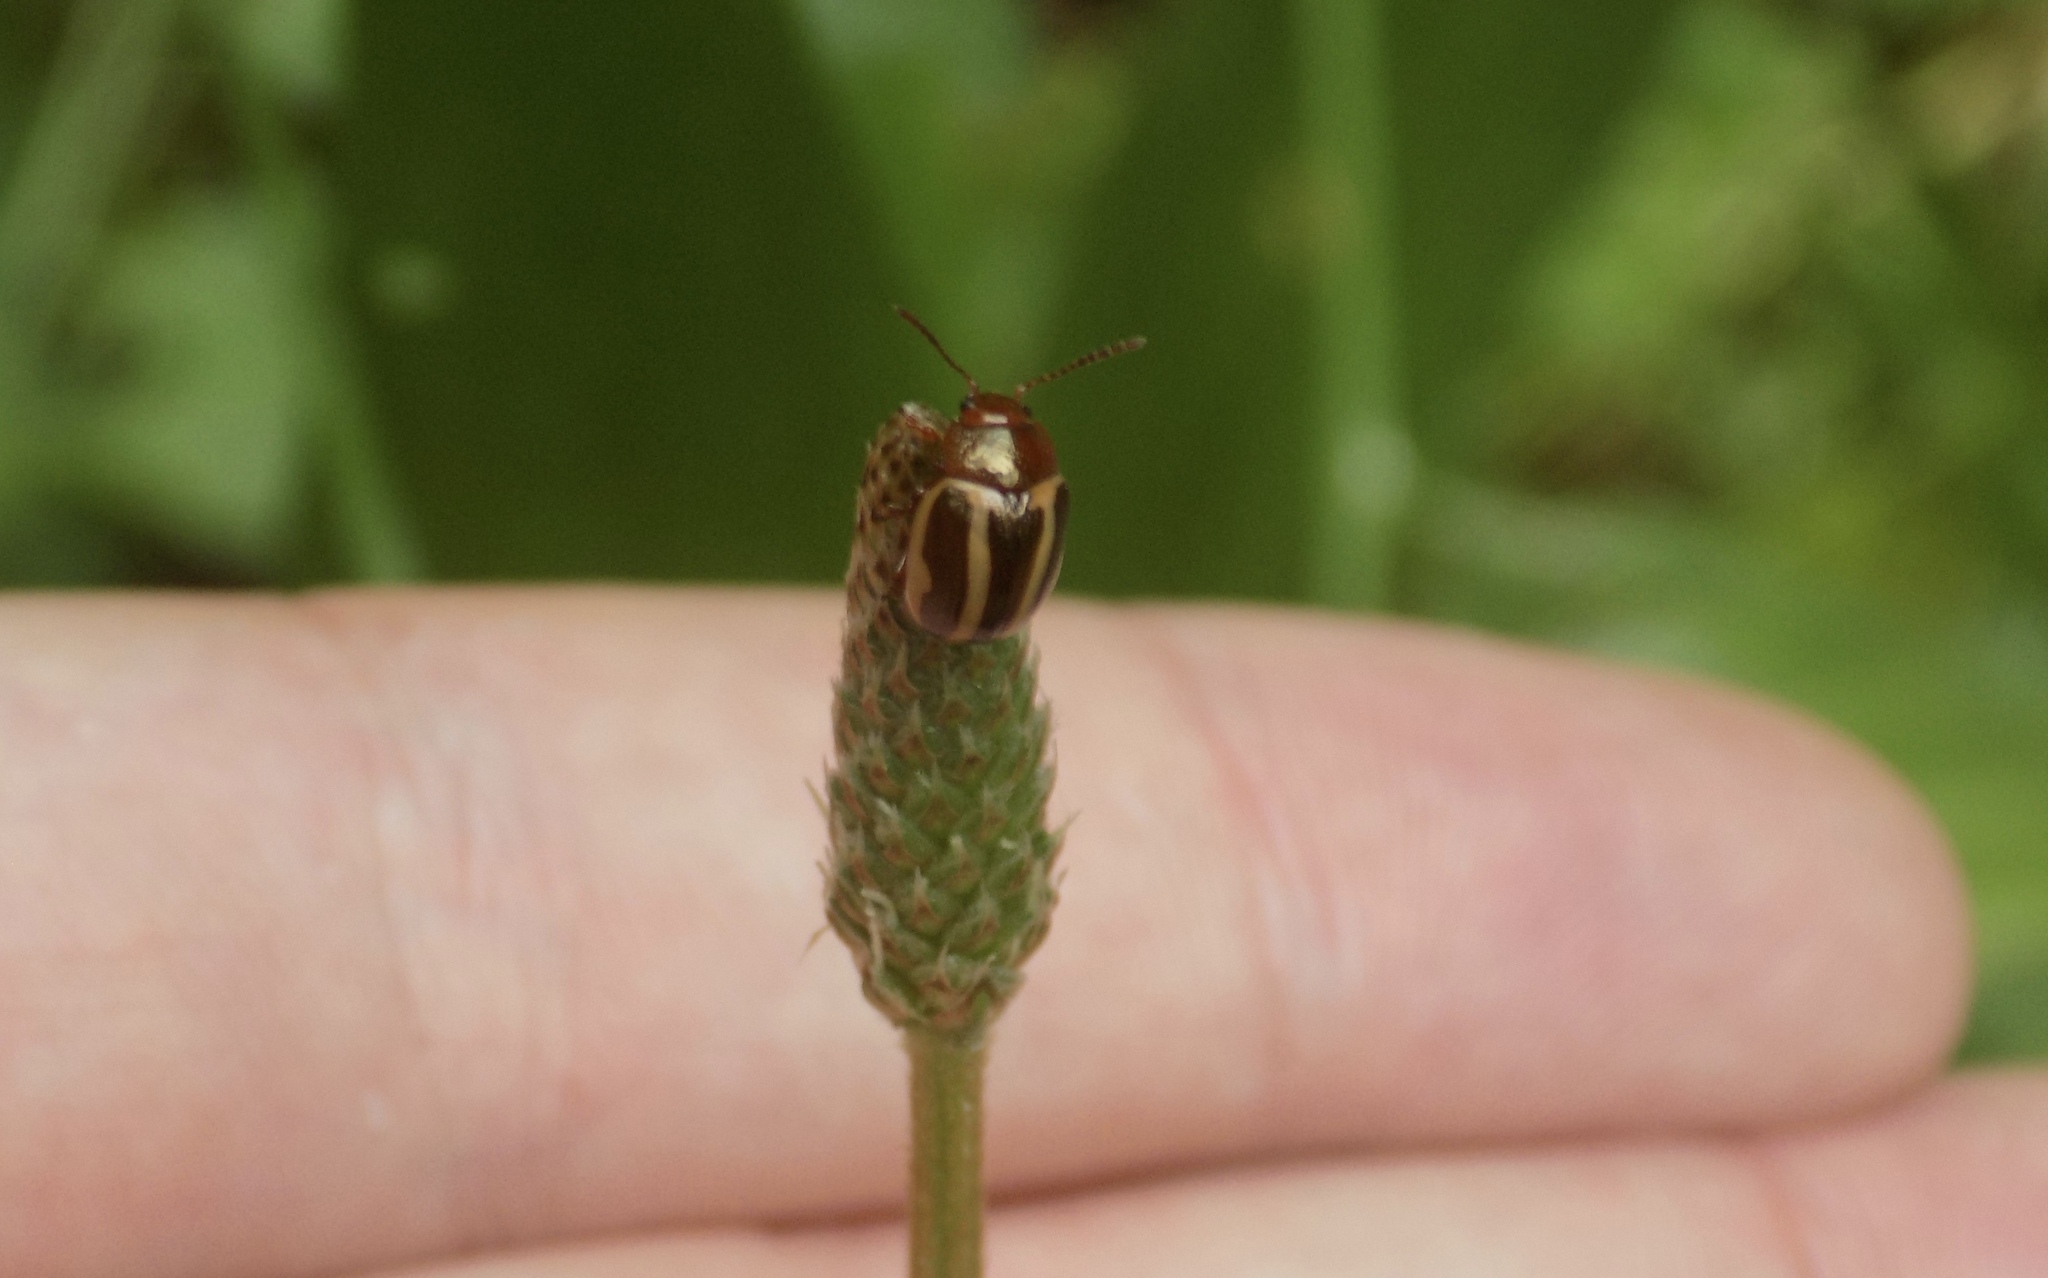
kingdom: Animalia
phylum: Arthropoda
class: Insecta
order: Coleoptera
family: Chrysomelidae
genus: Calligrapha
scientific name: Calligrapha bidenticola
